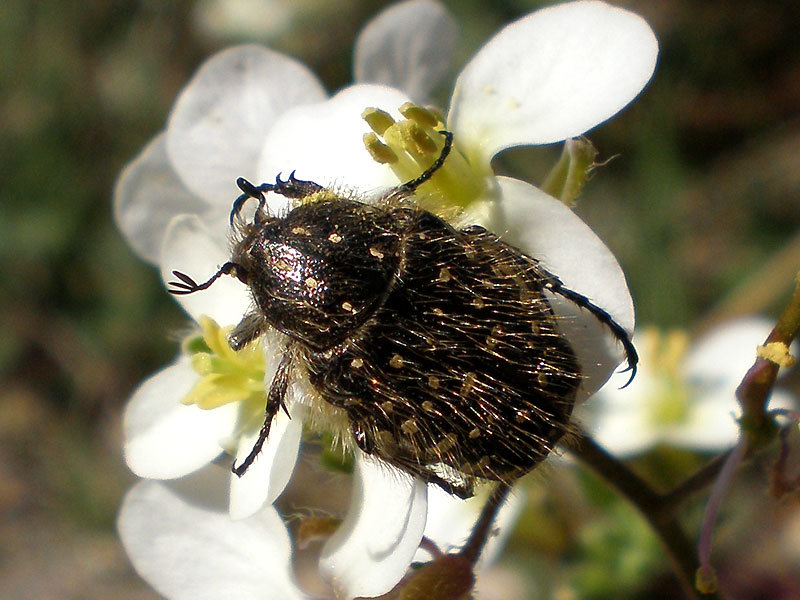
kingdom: Animalia
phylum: Arthropoda
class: Insecta
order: Coleoptera
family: Scarabaeidae
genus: Oxythyrea
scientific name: Oxythyrea funesta
